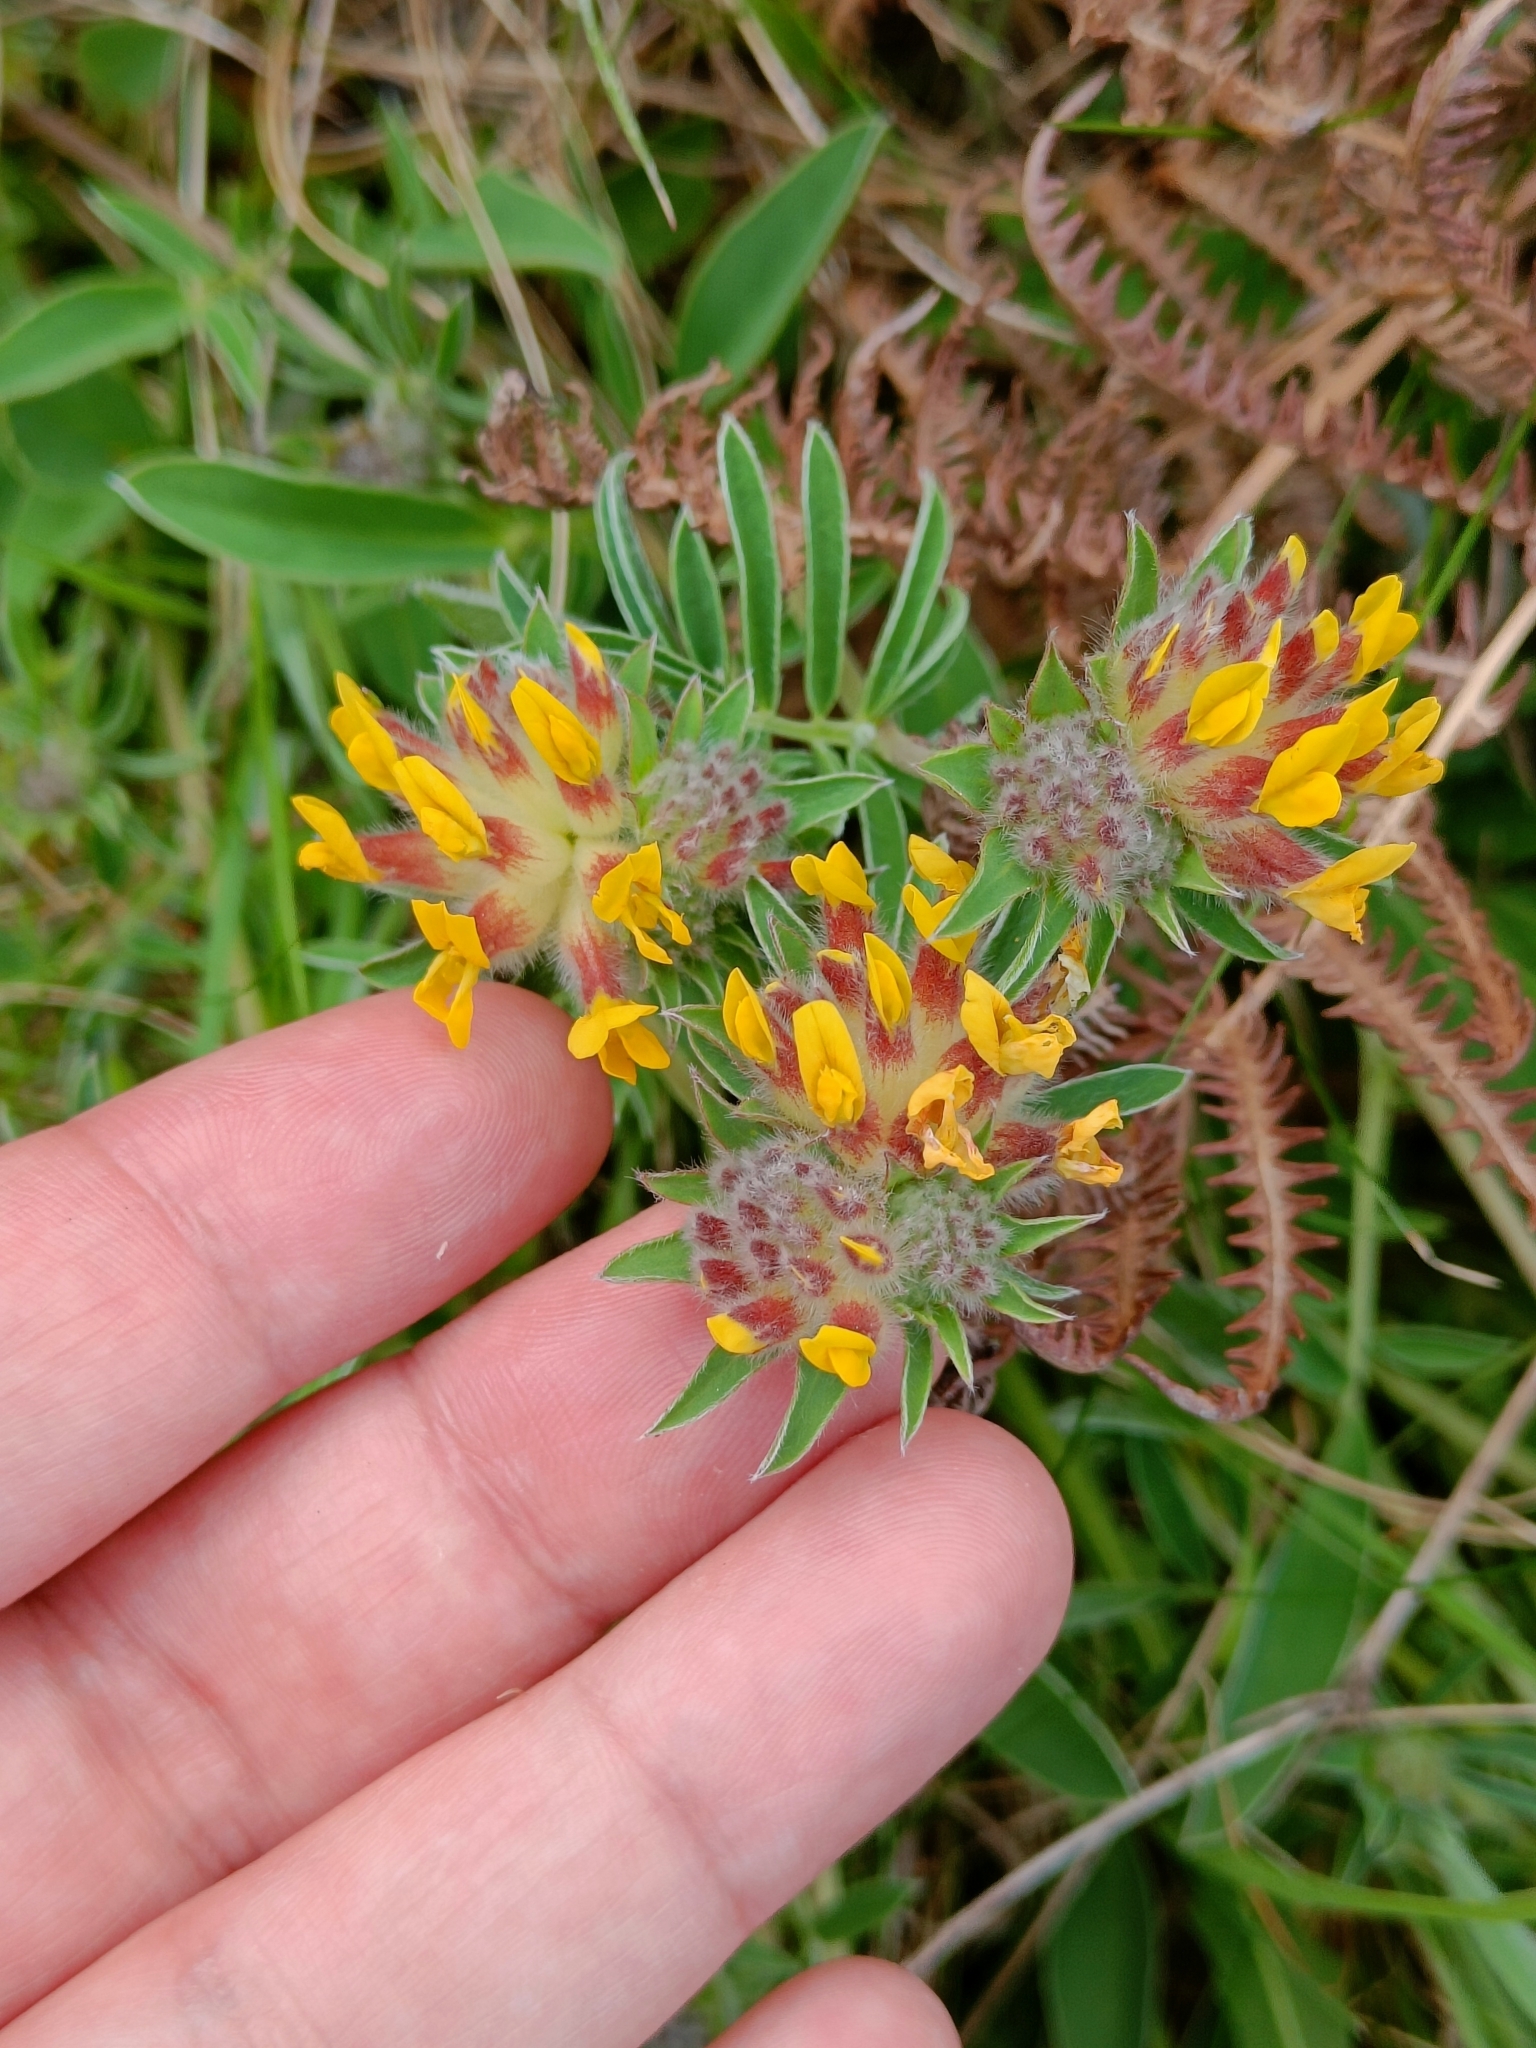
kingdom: Plantae
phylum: Tracheophyta
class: Magnoliopsida
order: Fabales
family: Fabaceae
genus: Anthyllis
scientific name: Anthyllis vulneraria
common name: Kidney vetch
